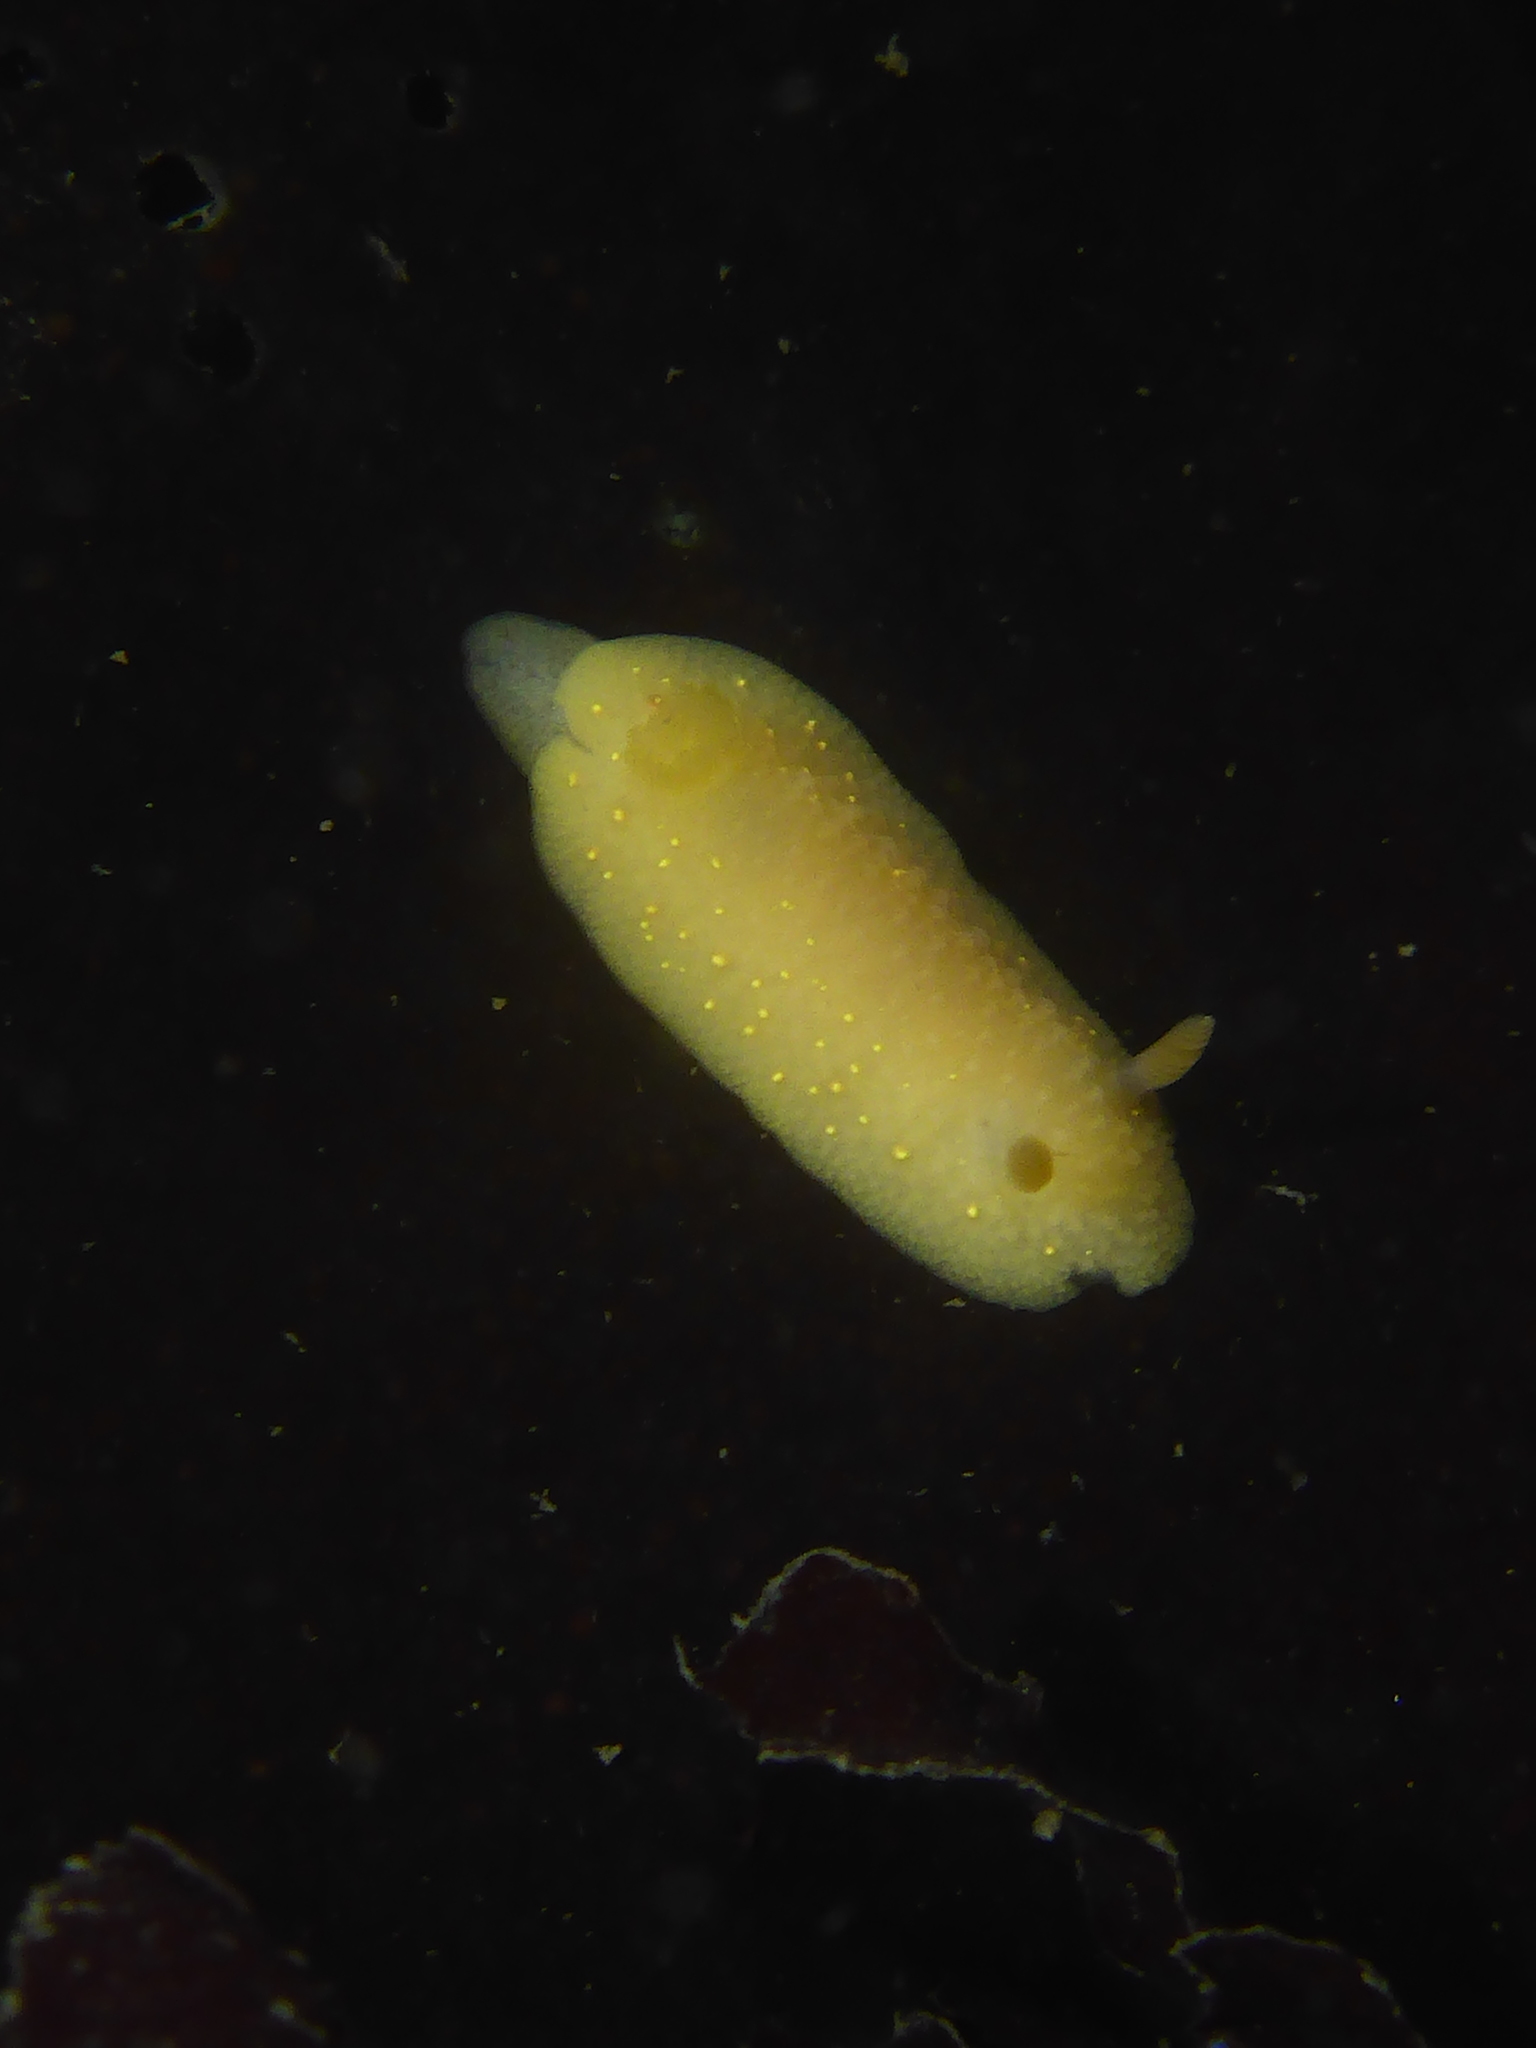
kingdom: Animalia
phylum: Mollusca
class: Gastropoda
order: Nudibranchia
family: Cadlinidae
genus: Cadlina
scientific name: Cadlina modesta
